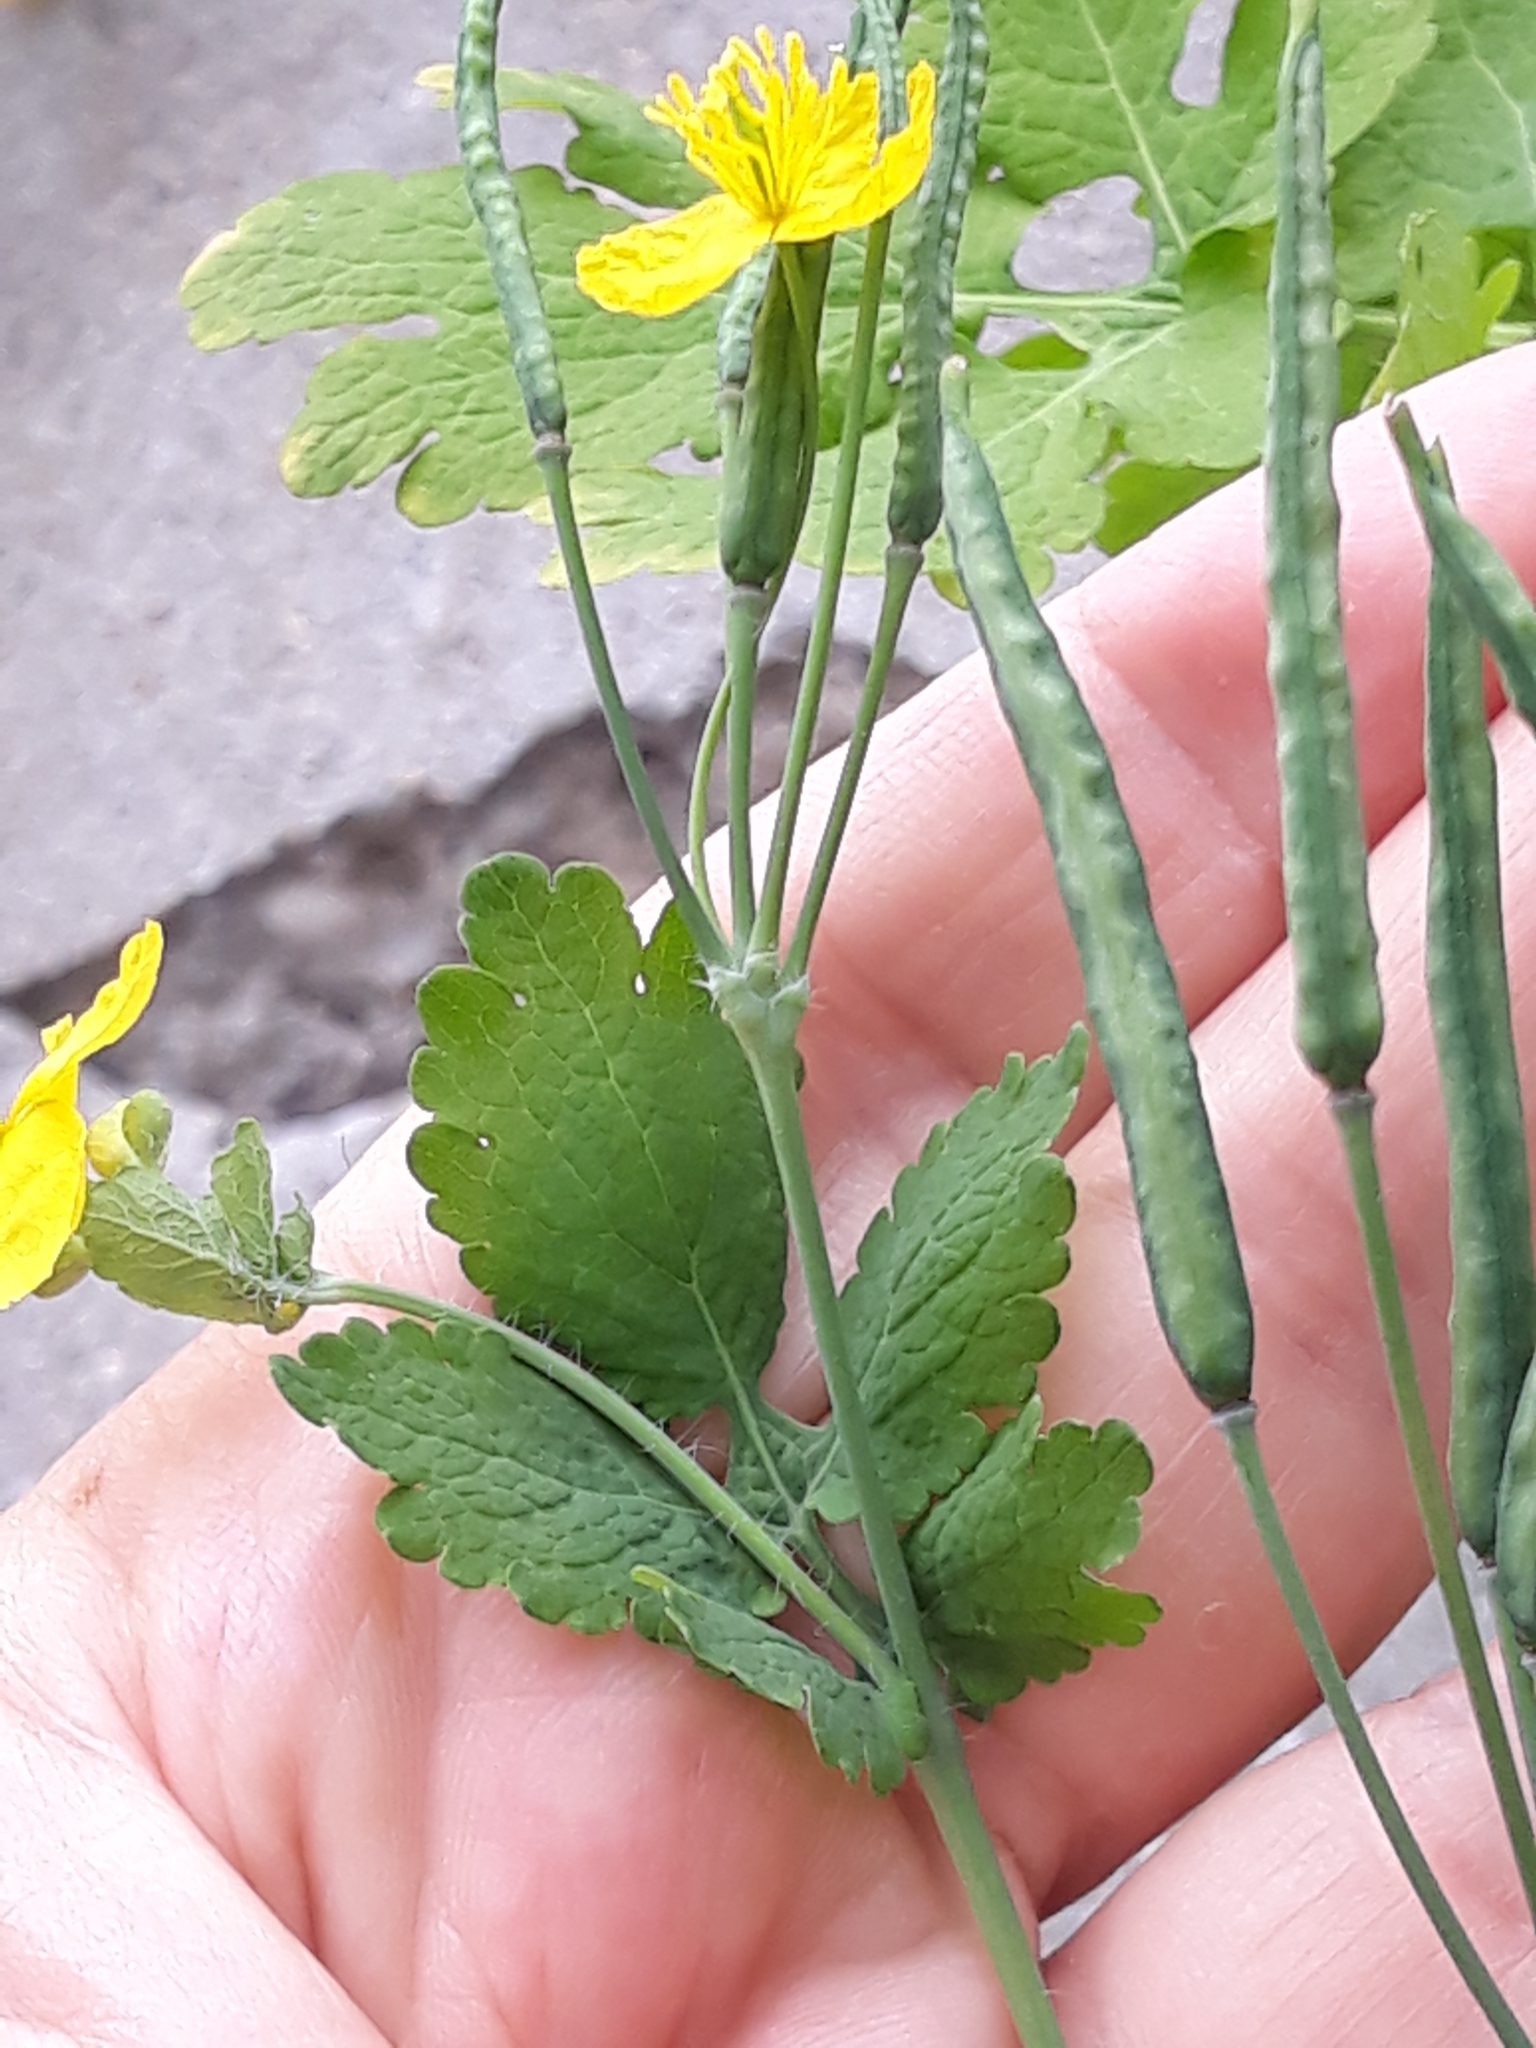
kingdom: Plantae
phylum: Tracheophyta
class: Magnoliopsida
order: Ranunculales
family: Papaveraceae
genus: Chelidonium
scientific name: Chelidonium majus
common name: Greater celandine
